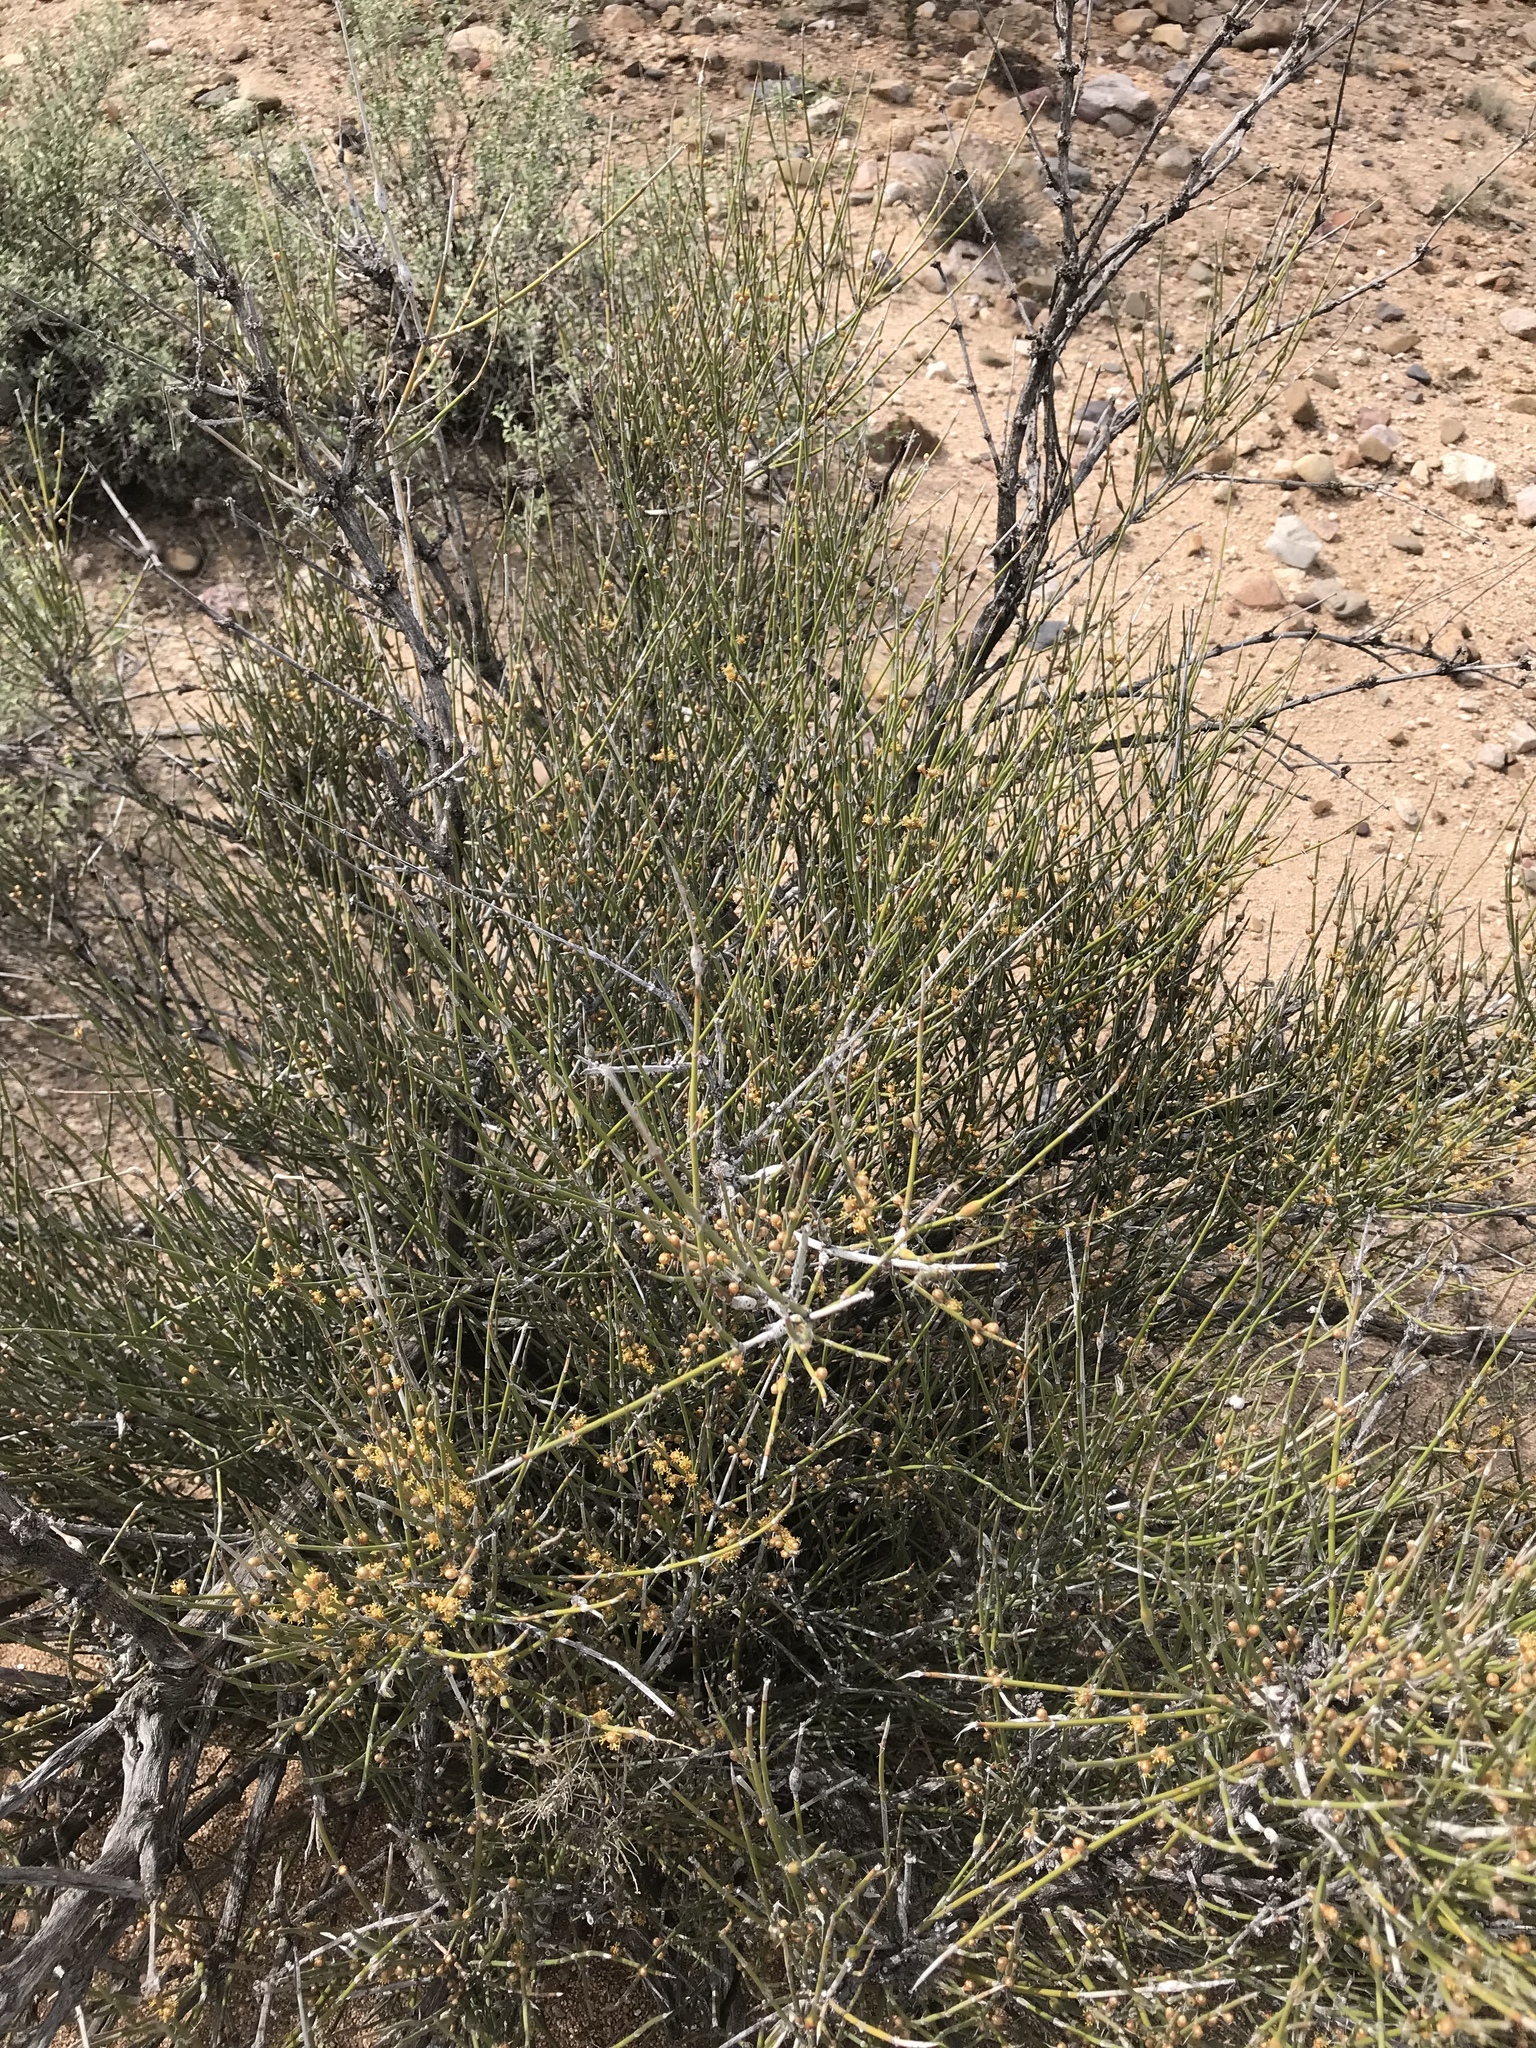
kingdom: Plantae
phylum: Tracheophyta
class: Gnetopsida
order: Ephedrales
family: Ephedraceae
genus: Ephedra
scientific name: Ephedra trifurca
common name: Mexican-tea
